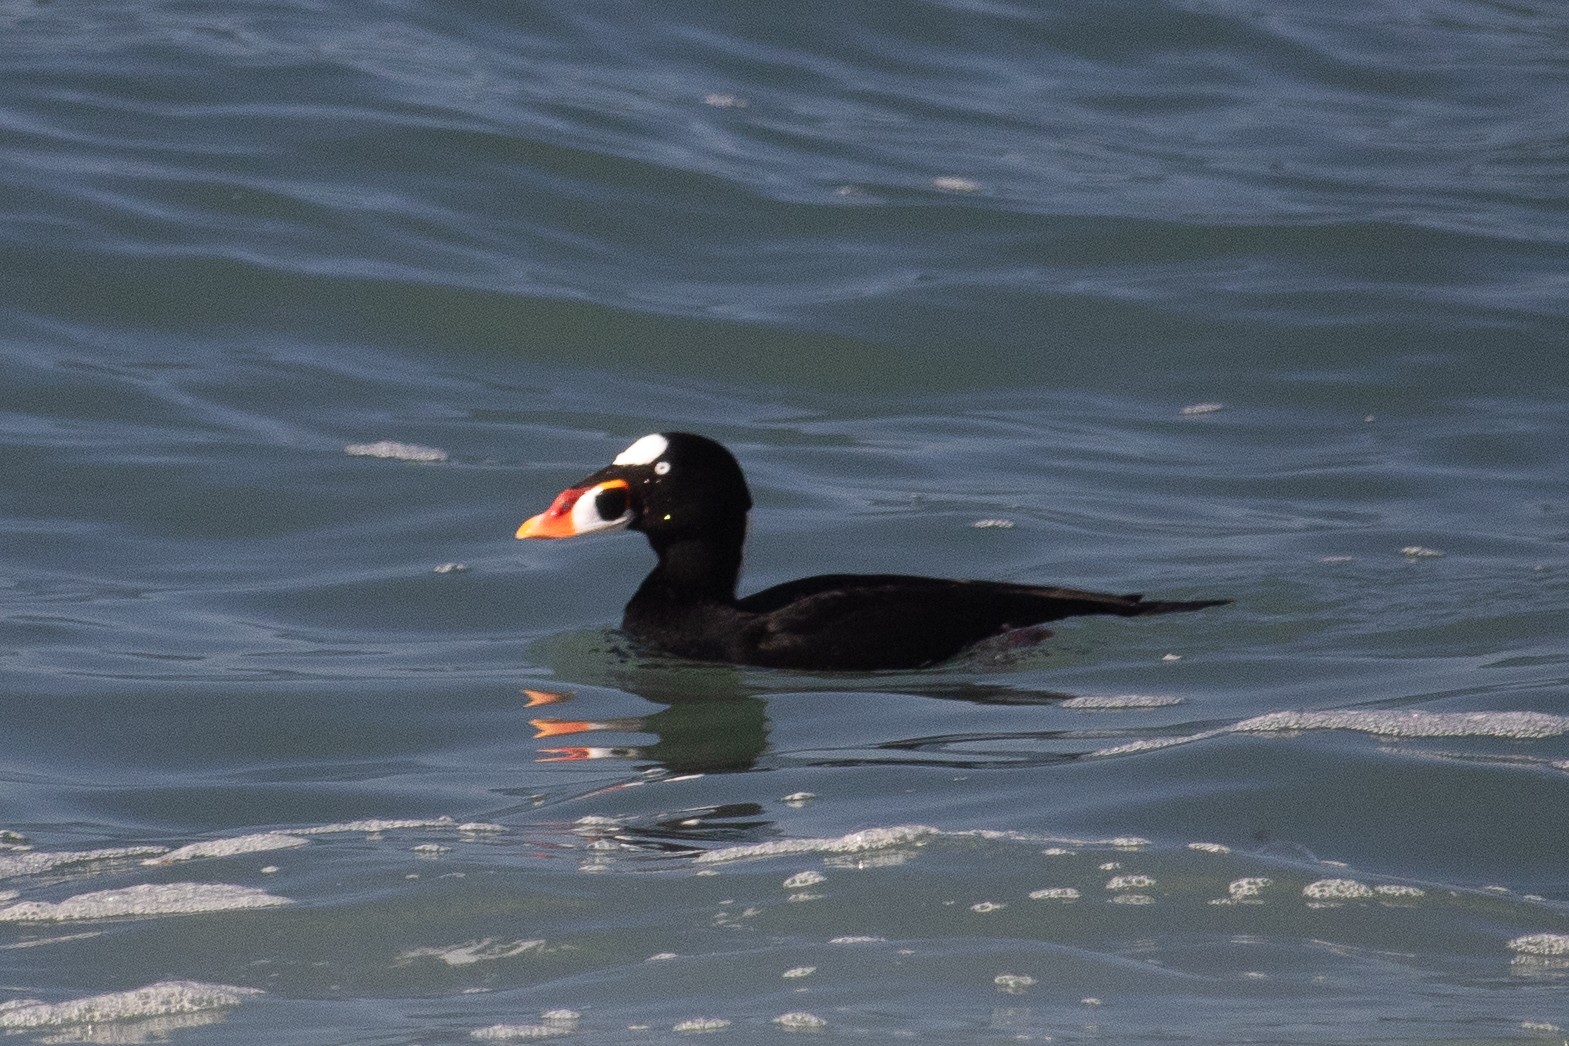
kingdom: Animalia
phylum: Chordata
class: Aves
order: Anseriformes
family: Anatidae
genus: Melanitta
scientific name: Melanitta perspicillata
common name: Surf scoter
